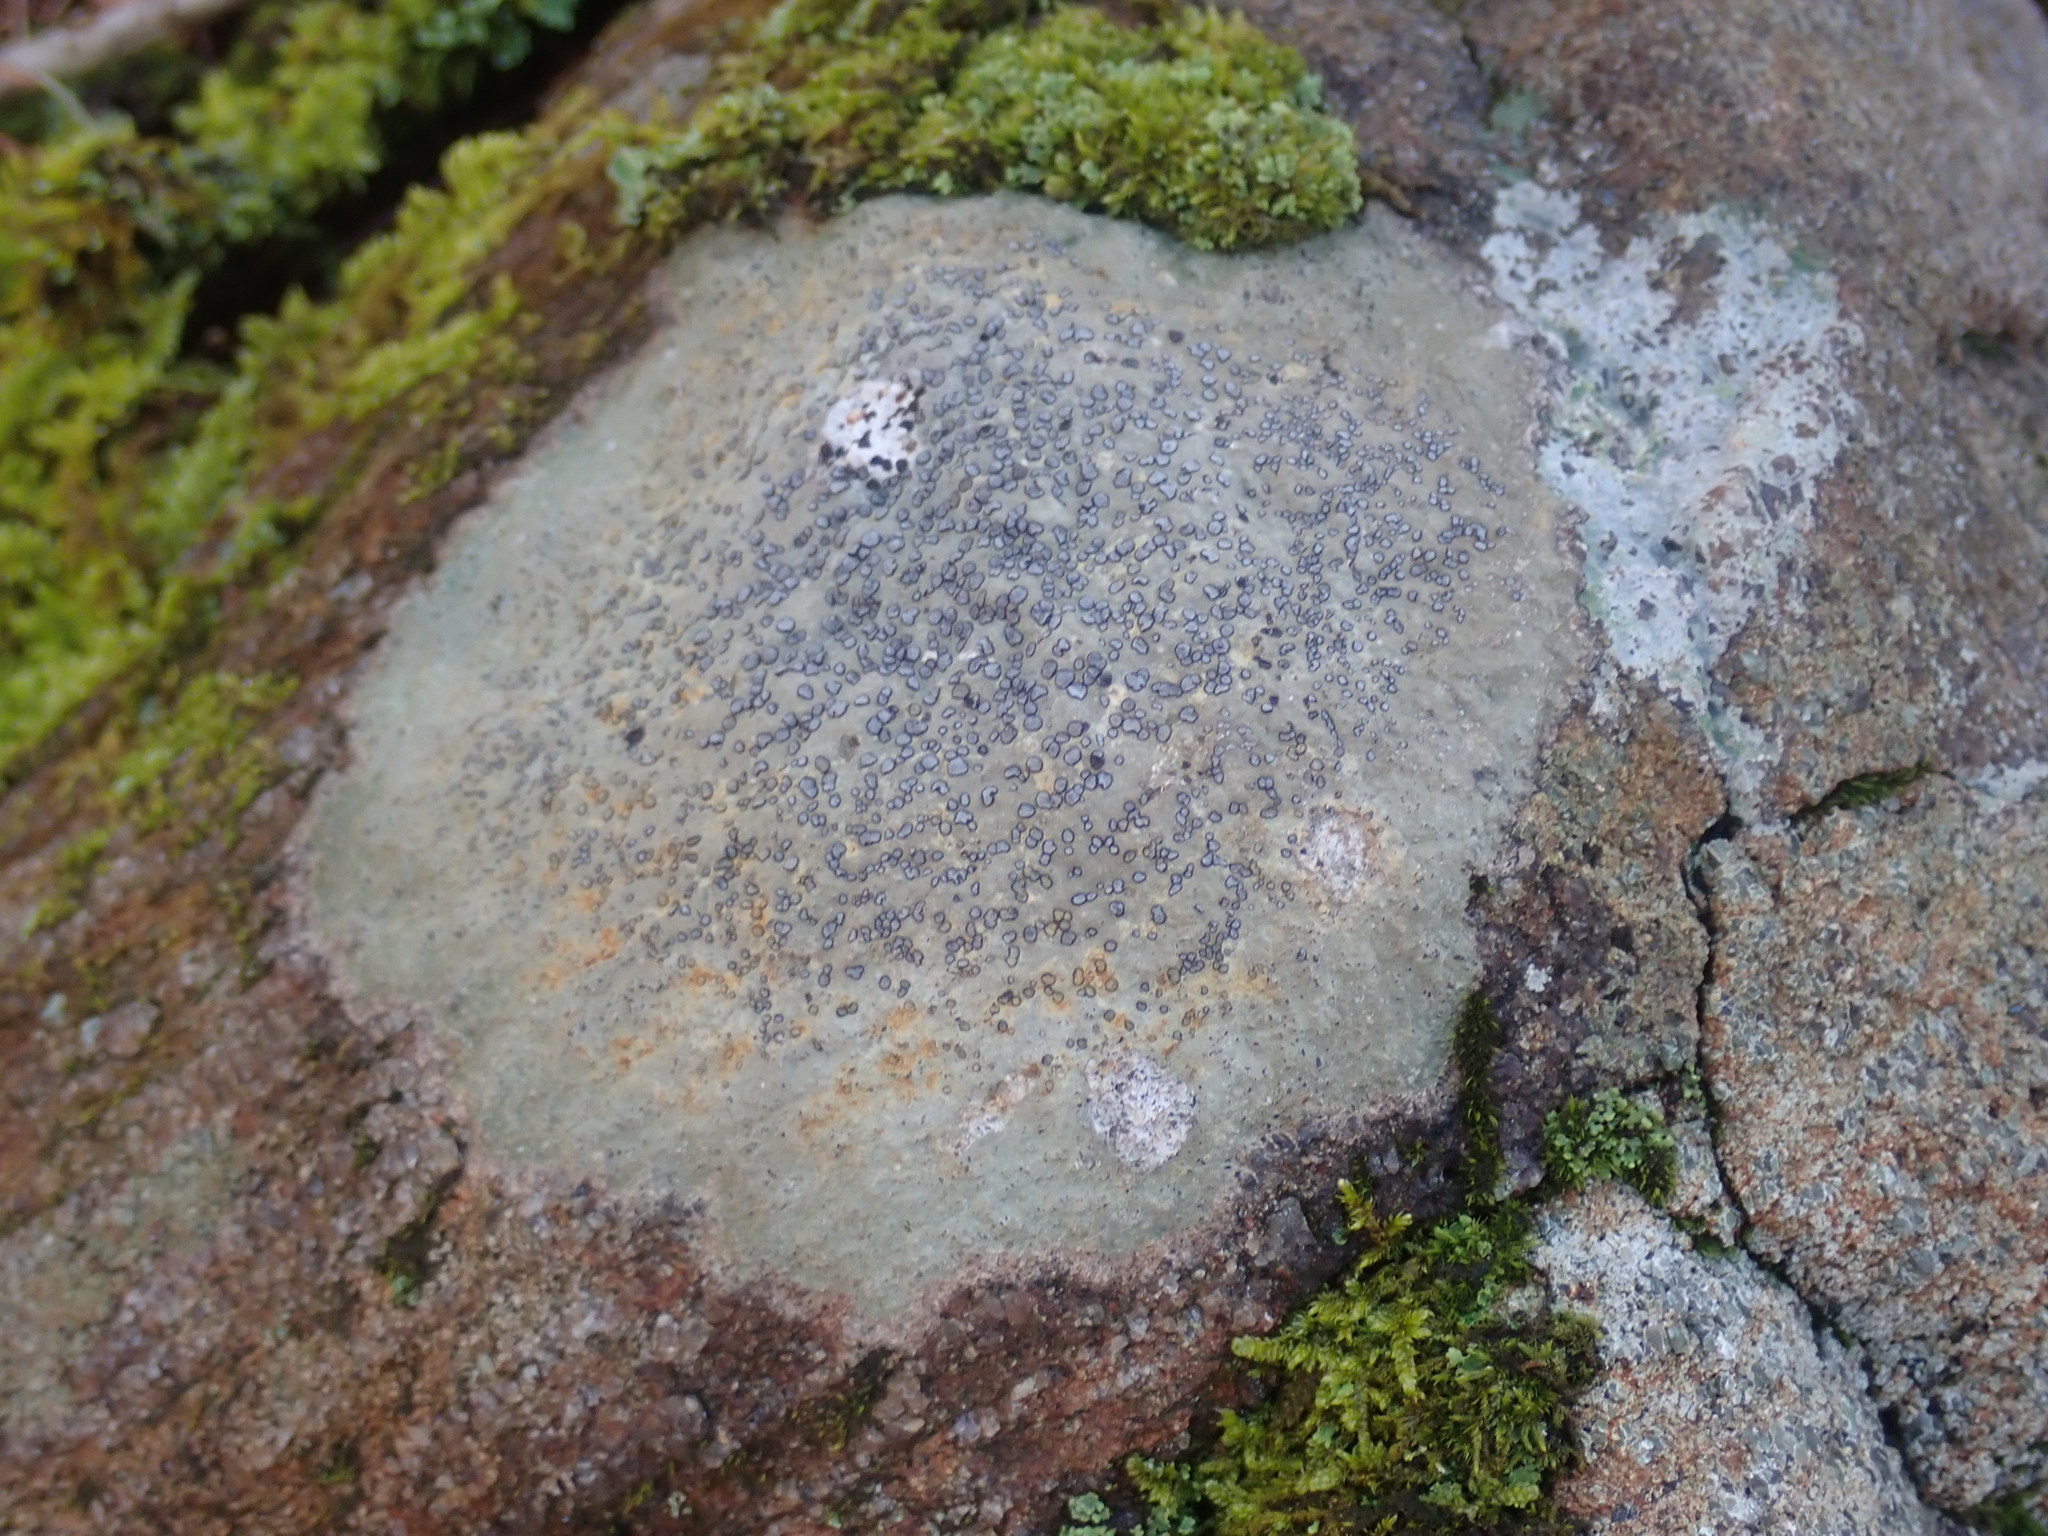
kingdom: Fungi
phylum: Ascomycota
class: Lecanoromycetes
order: Lecideales
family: Lecideaceae
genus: Porpidia
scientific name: Porpidia albocaerulescens
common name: Smokey-eyed boulder lichen
